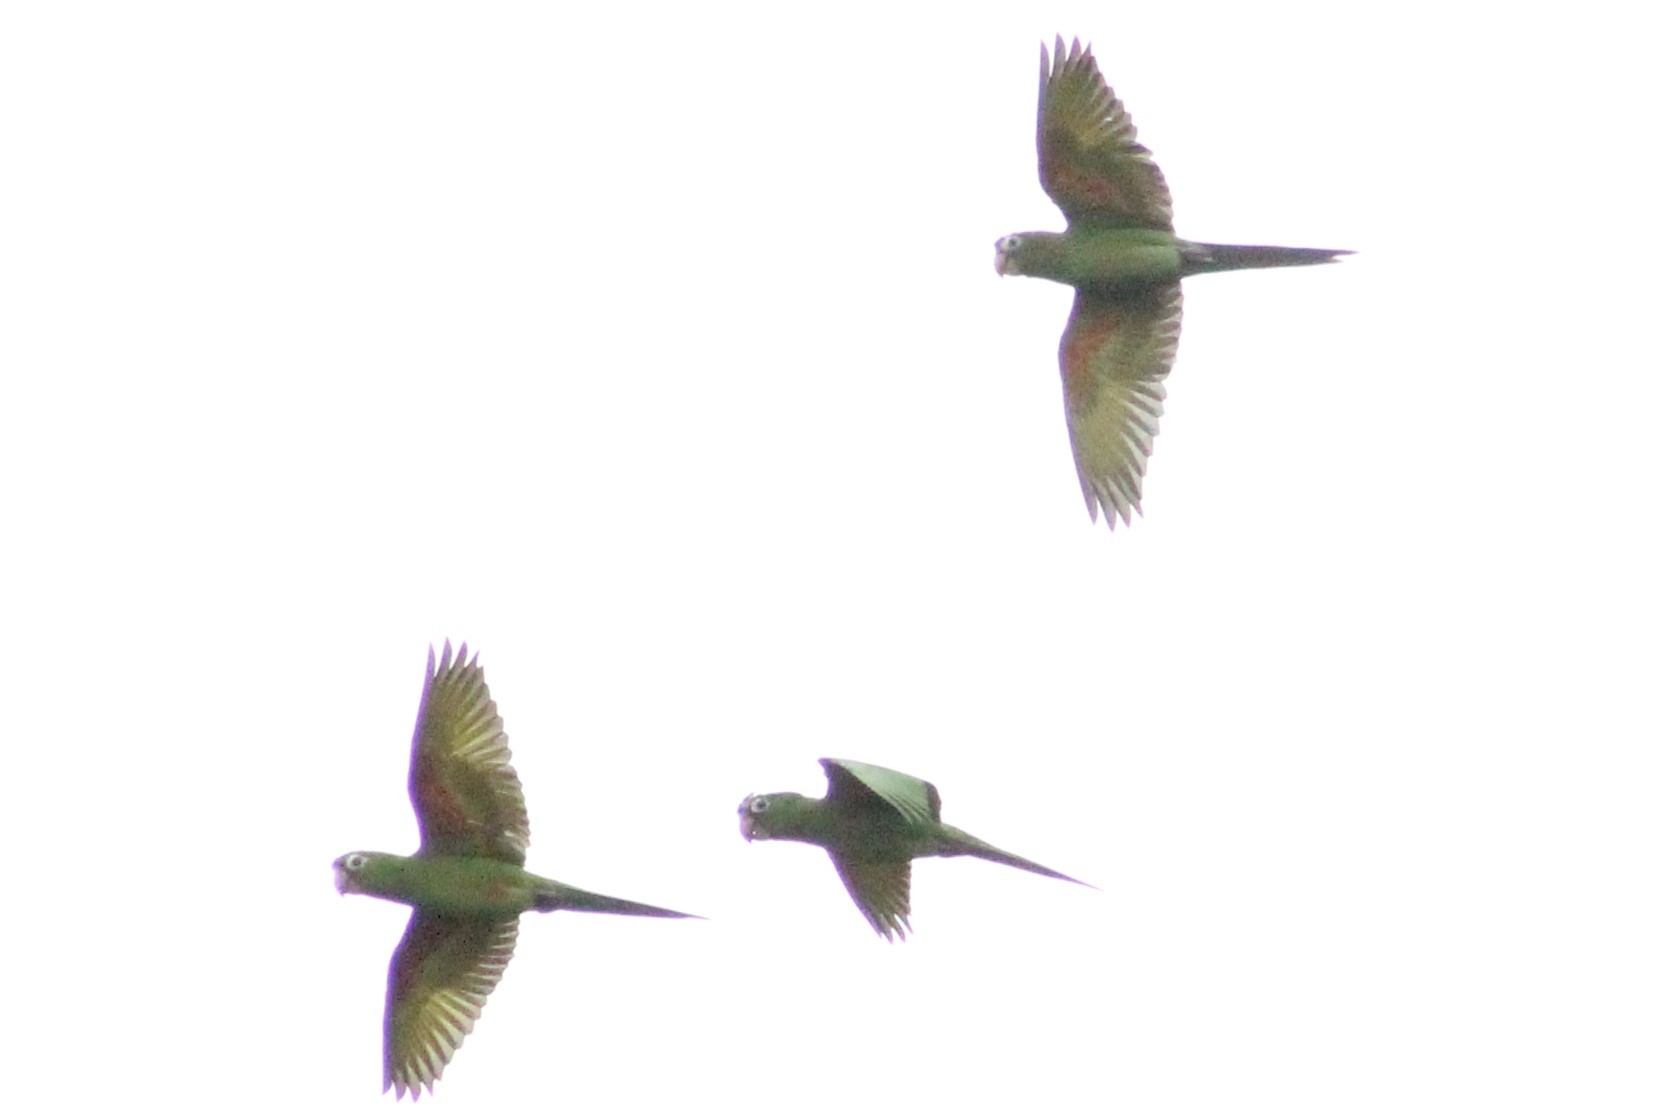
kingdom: Animalia
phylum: Chordata
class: Aves
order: Psittaciformes
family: Psittacidae
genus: Aratinga
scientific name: Aratinga weddellii
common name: Dusky-headed parakeet
